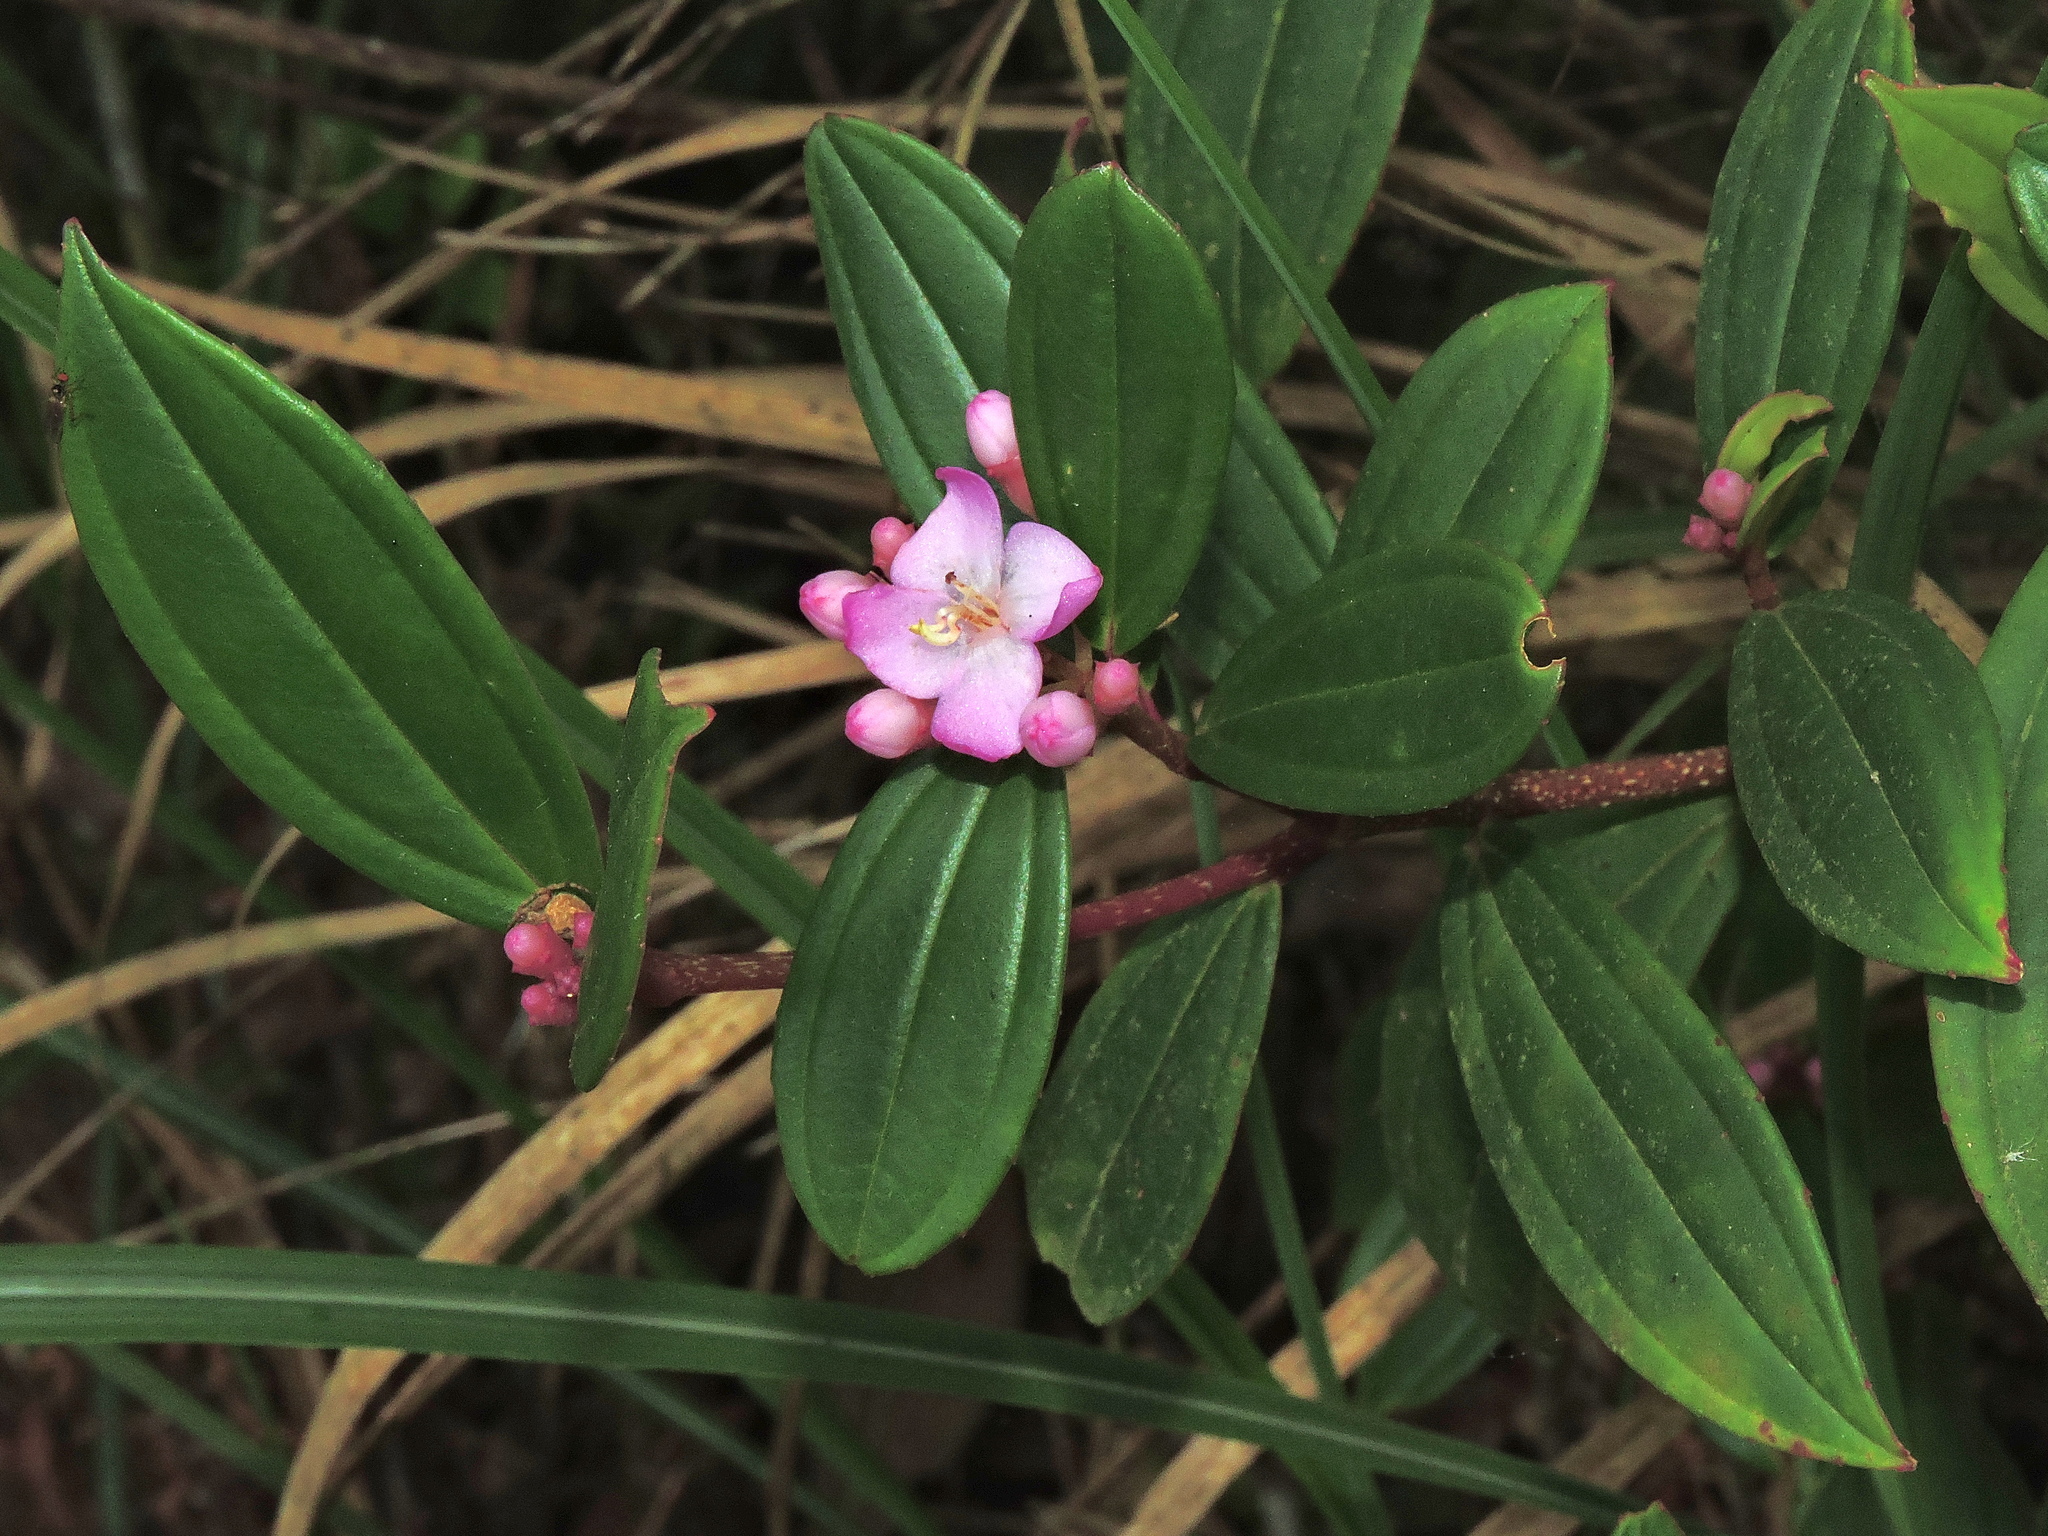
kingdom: Plantae
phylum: Tracheophyta
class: Magnoliopsida
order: Myrtales
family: Melastomataceae
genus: Medinilla
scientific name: Medinilla fengii
